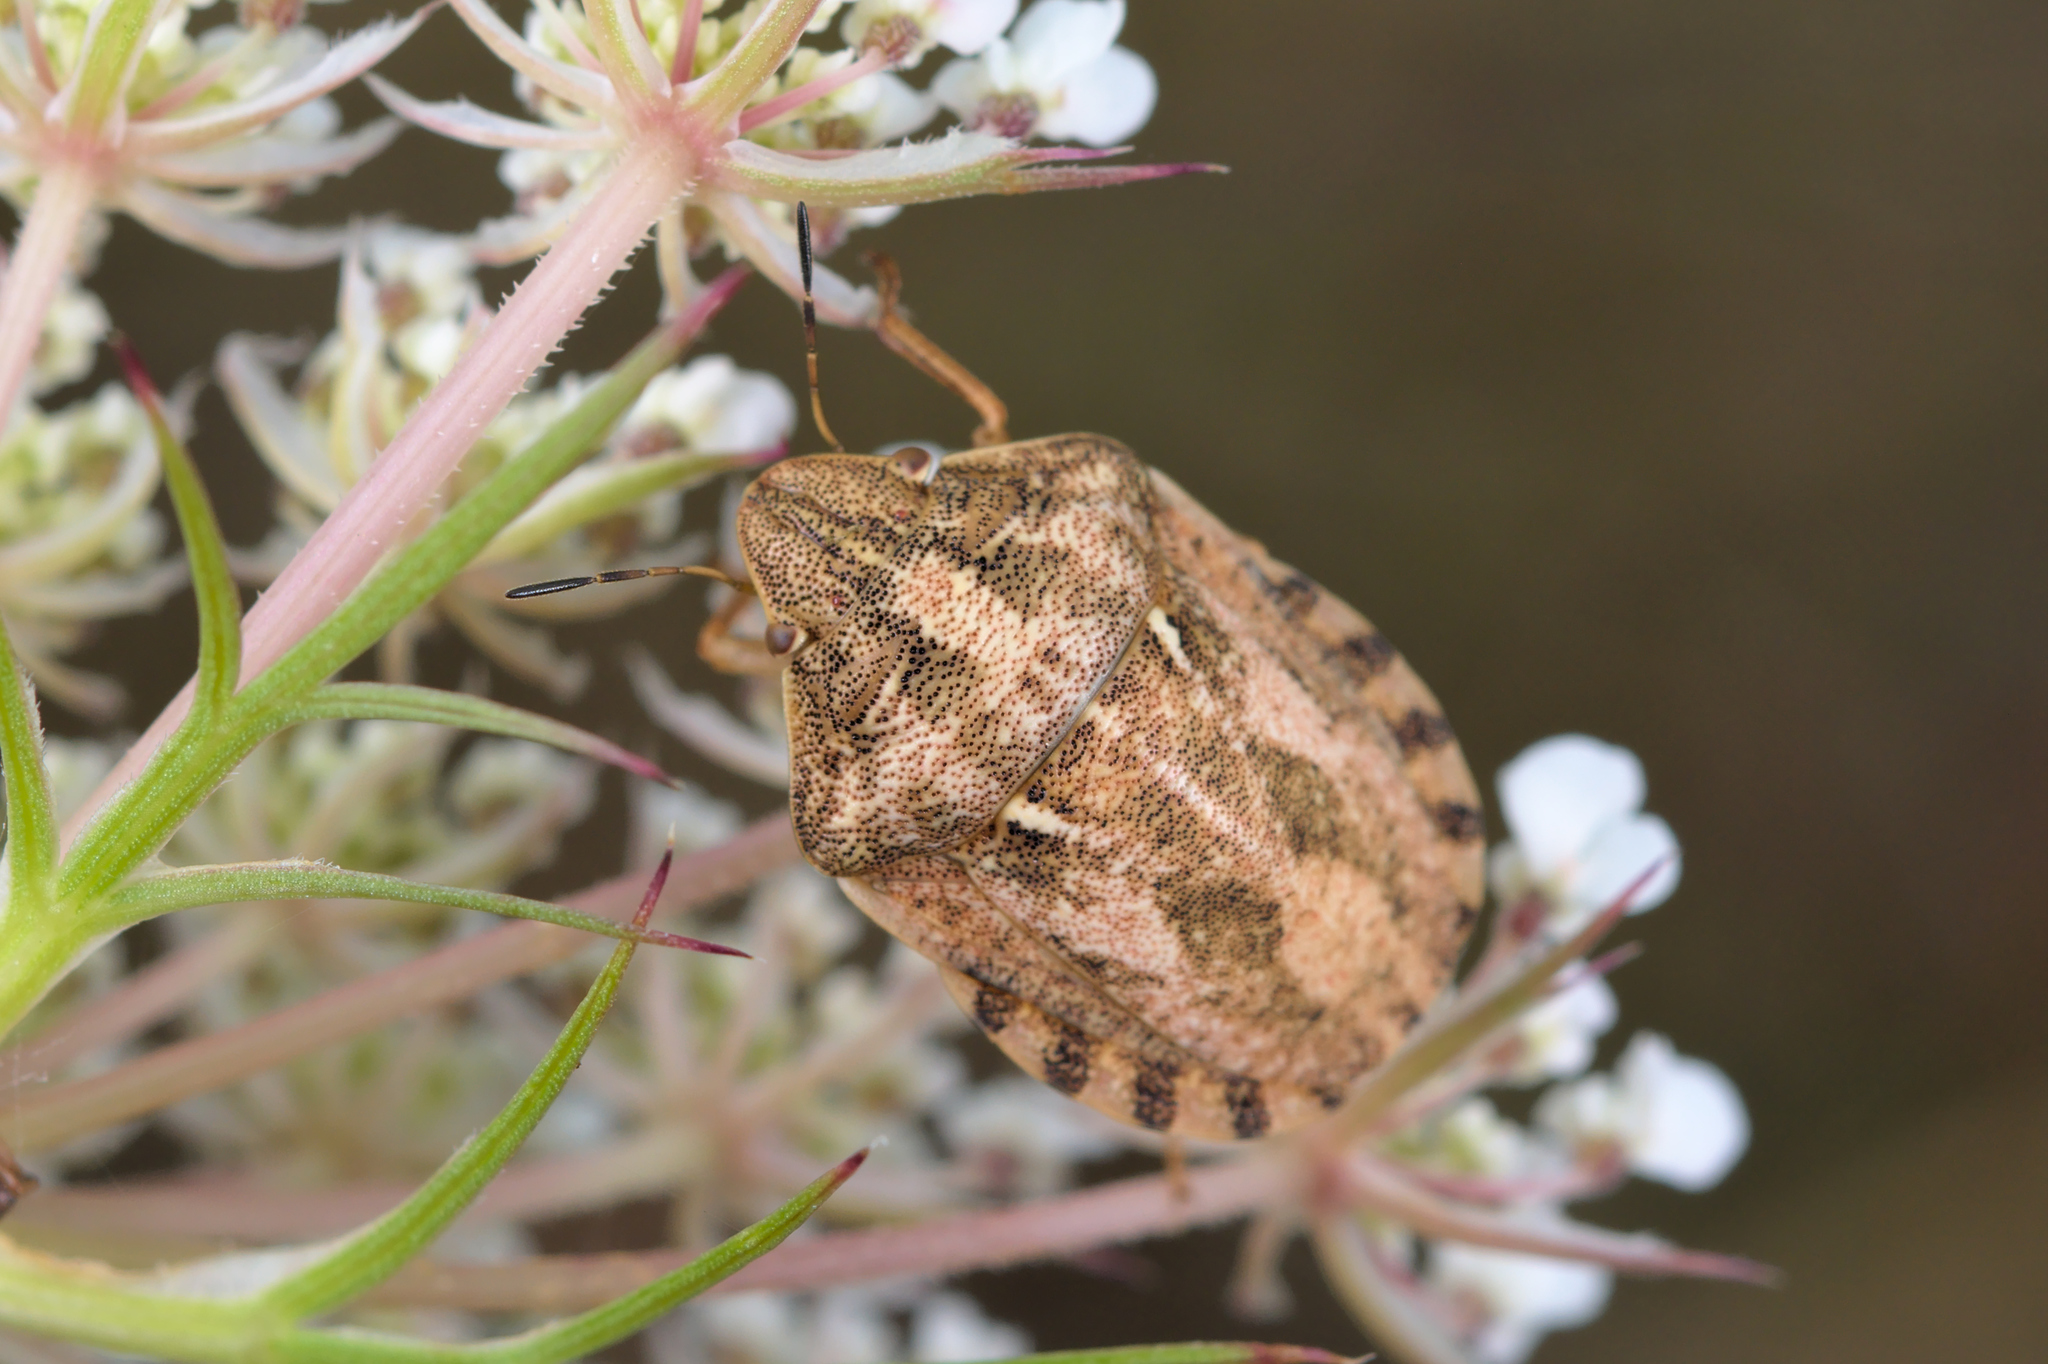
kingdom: Animalia
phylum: Arthropoda
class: Insecta
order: Hemiptera
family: Scutelleridae
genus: Eurygaster
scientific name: Eurygaster maura
